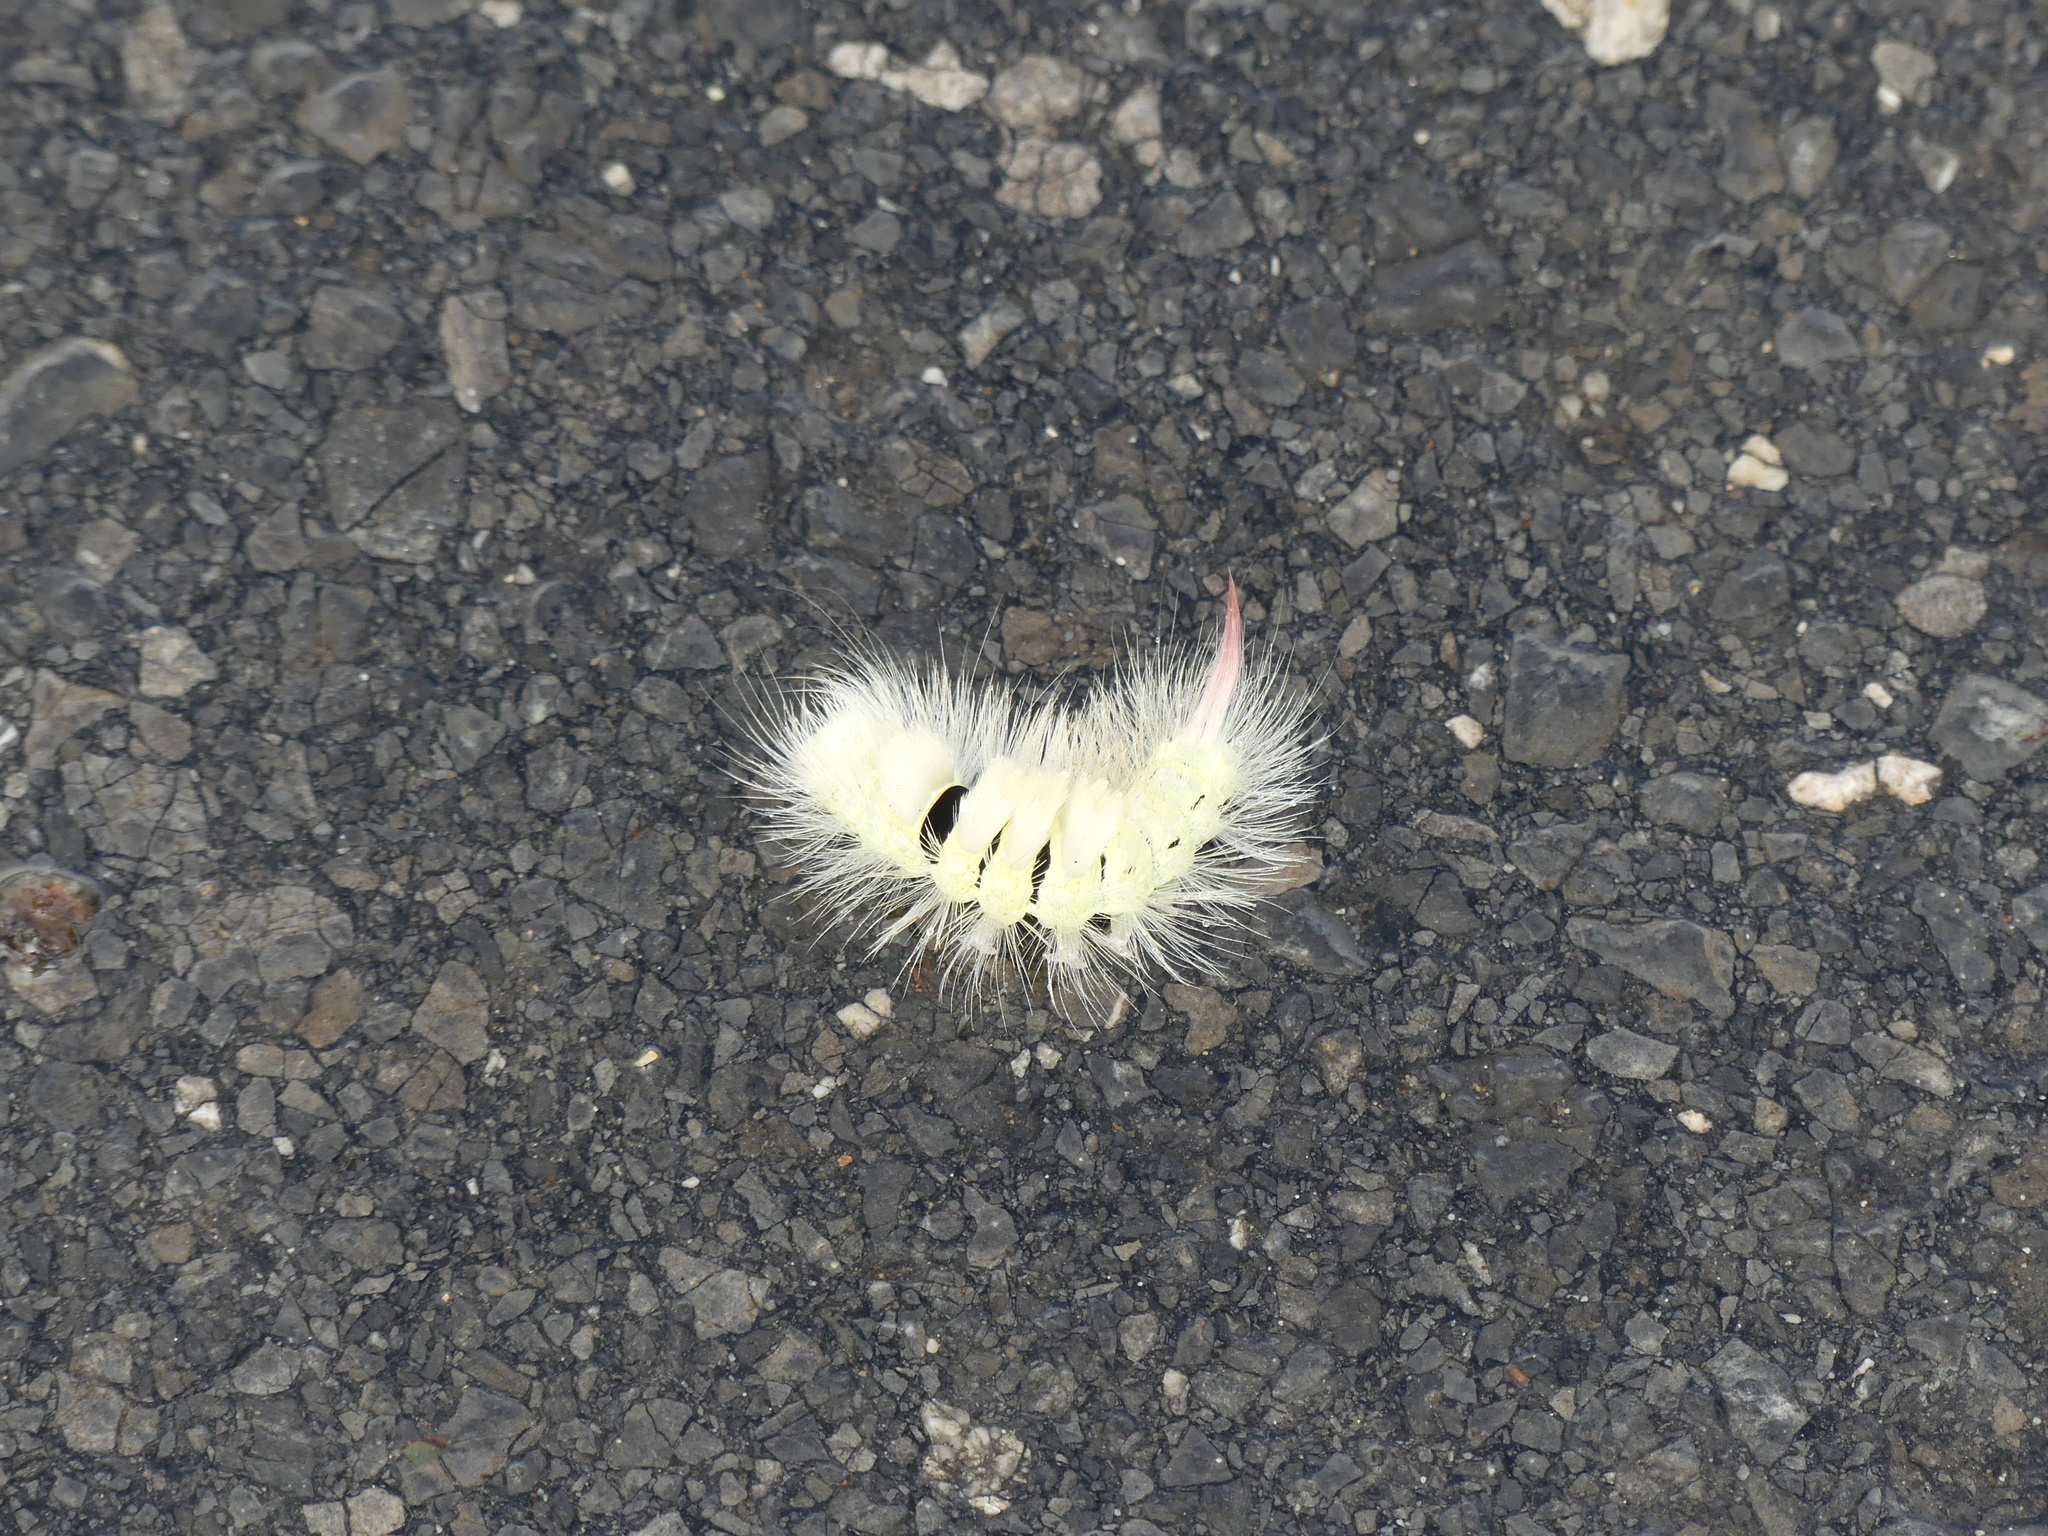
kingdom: Animalia
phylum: Arthropoda
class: Insecta
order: Lepidoptera
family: Erebidae
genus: Calliteara
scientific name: Calliteara pudibunda
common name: Pale tussock
